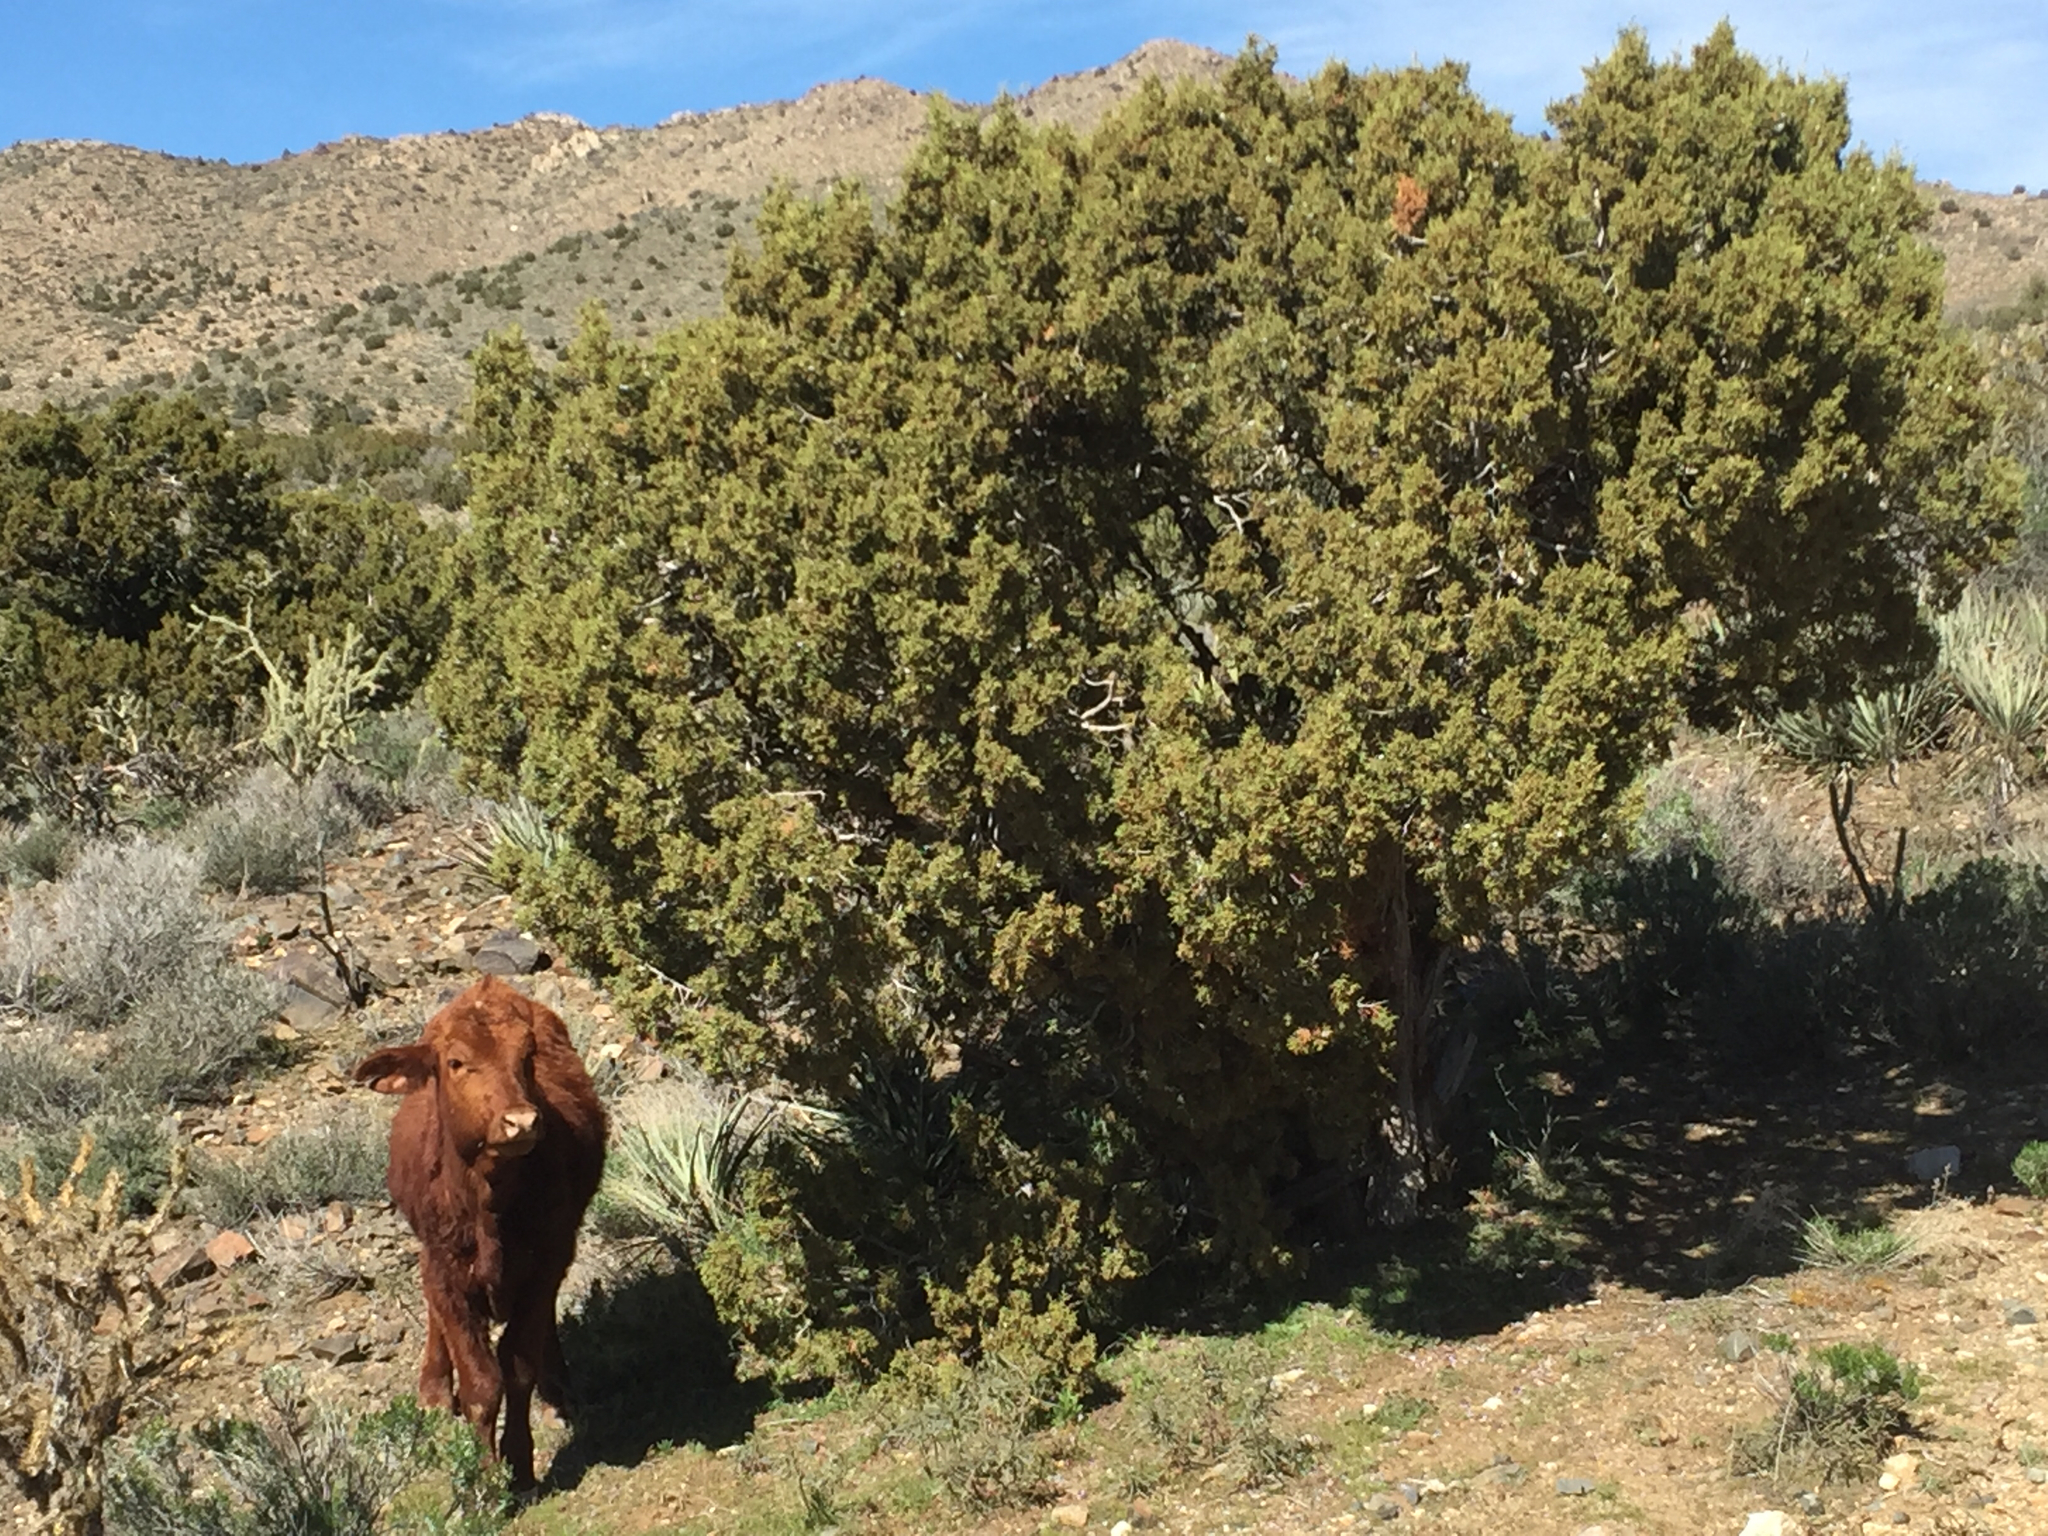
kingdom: Plantae
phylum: Tracheophyta
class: Pinopsida
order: Pinales
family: Cupressaceae
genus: Juniperus
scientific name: Juniperus osteosperma
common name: Utah juniper
